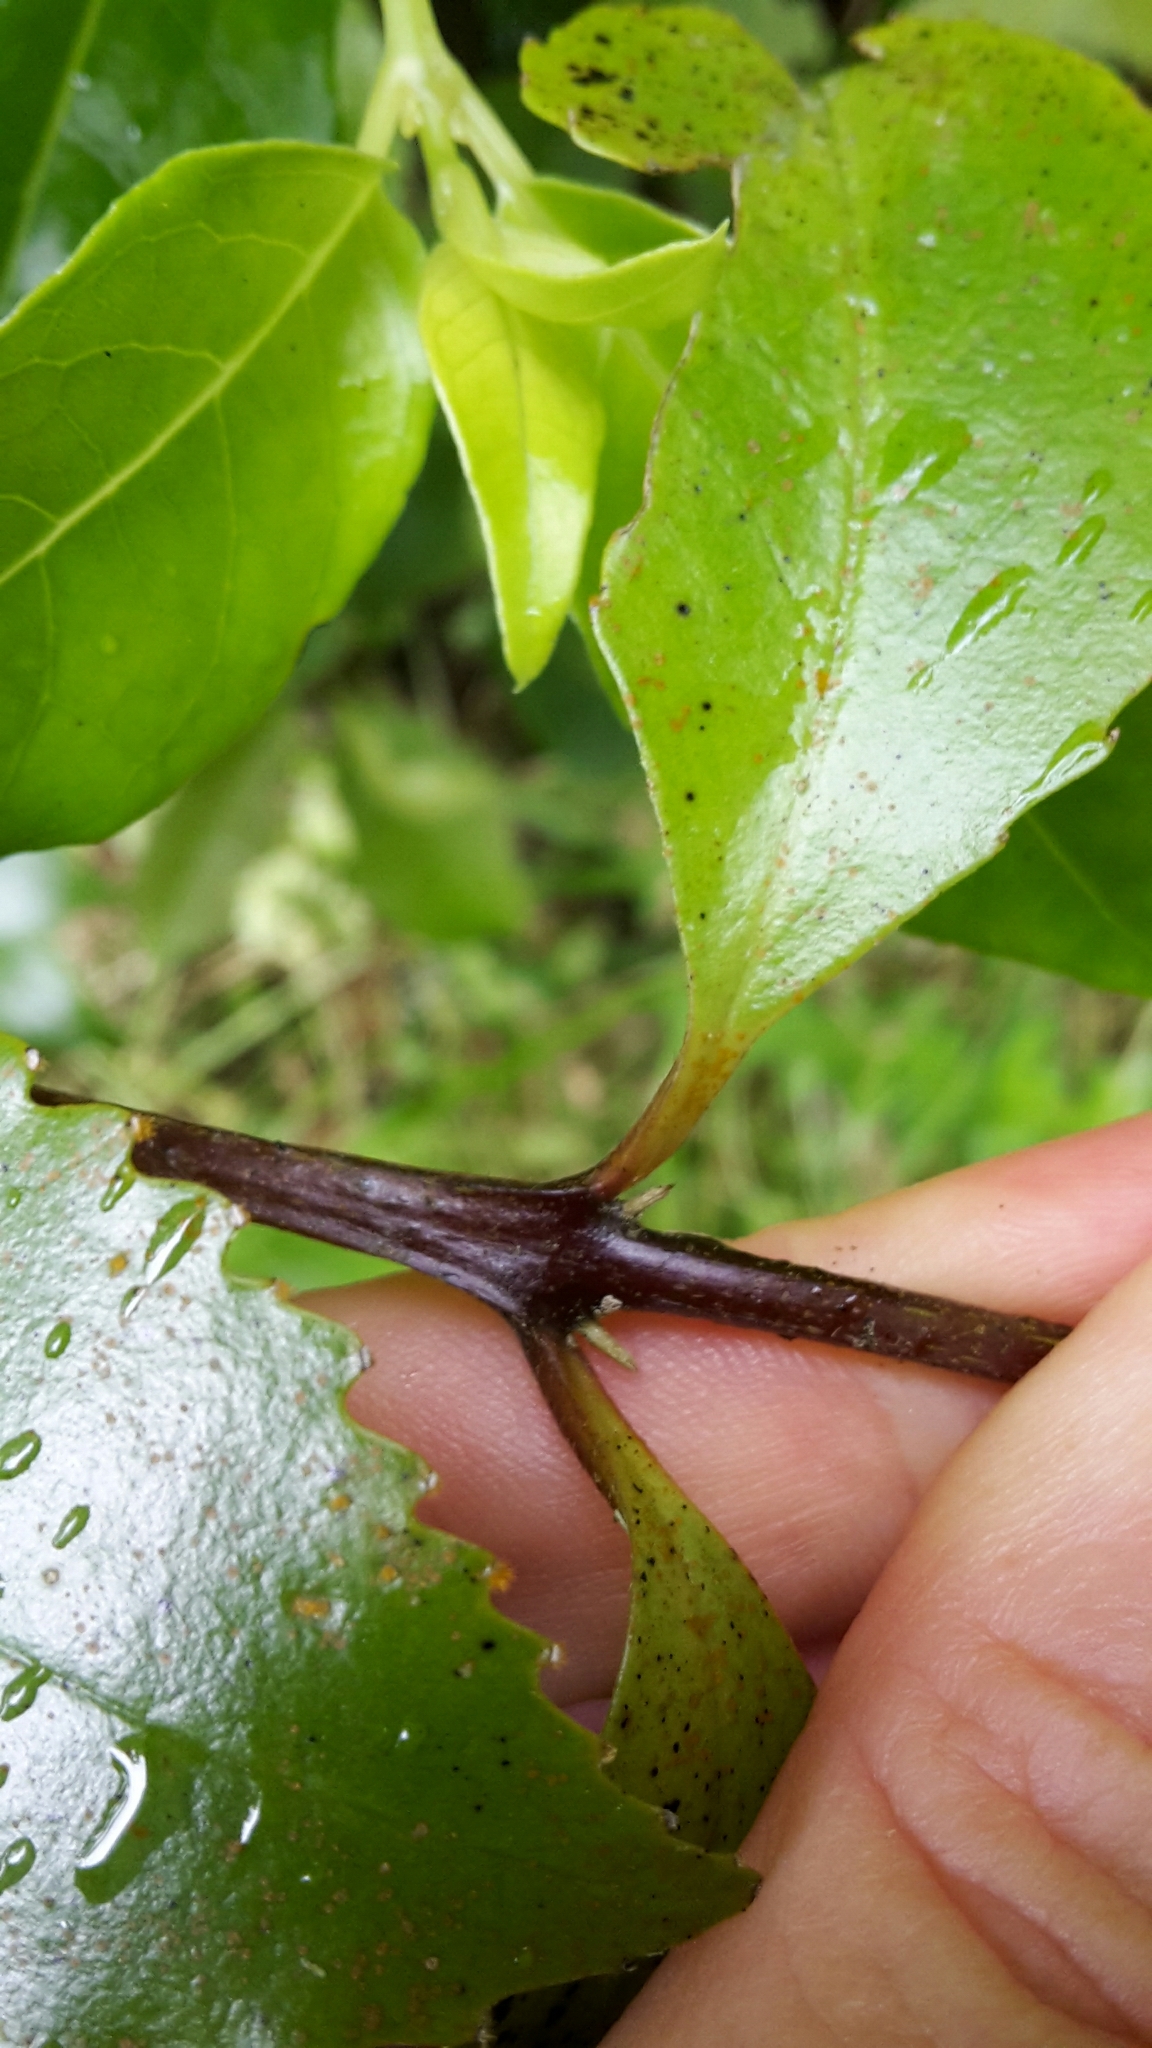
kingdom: Plantae
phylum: Tracheophyta
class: Magnoliopsida
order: Laurales
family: Atherospermataceae
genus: Laurelia
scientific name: Laurelia novae-zelandiae
